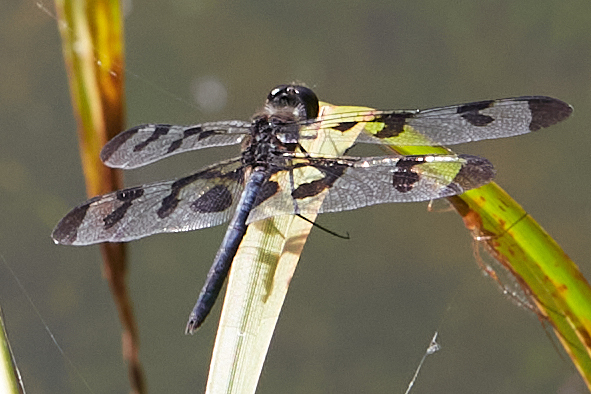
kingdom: Animalia
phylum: Arthropoda
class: Insecta
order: Odonata
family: Libellulidae
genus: Celithemis
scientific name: Celithemis fasciata
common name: Banded pennant
